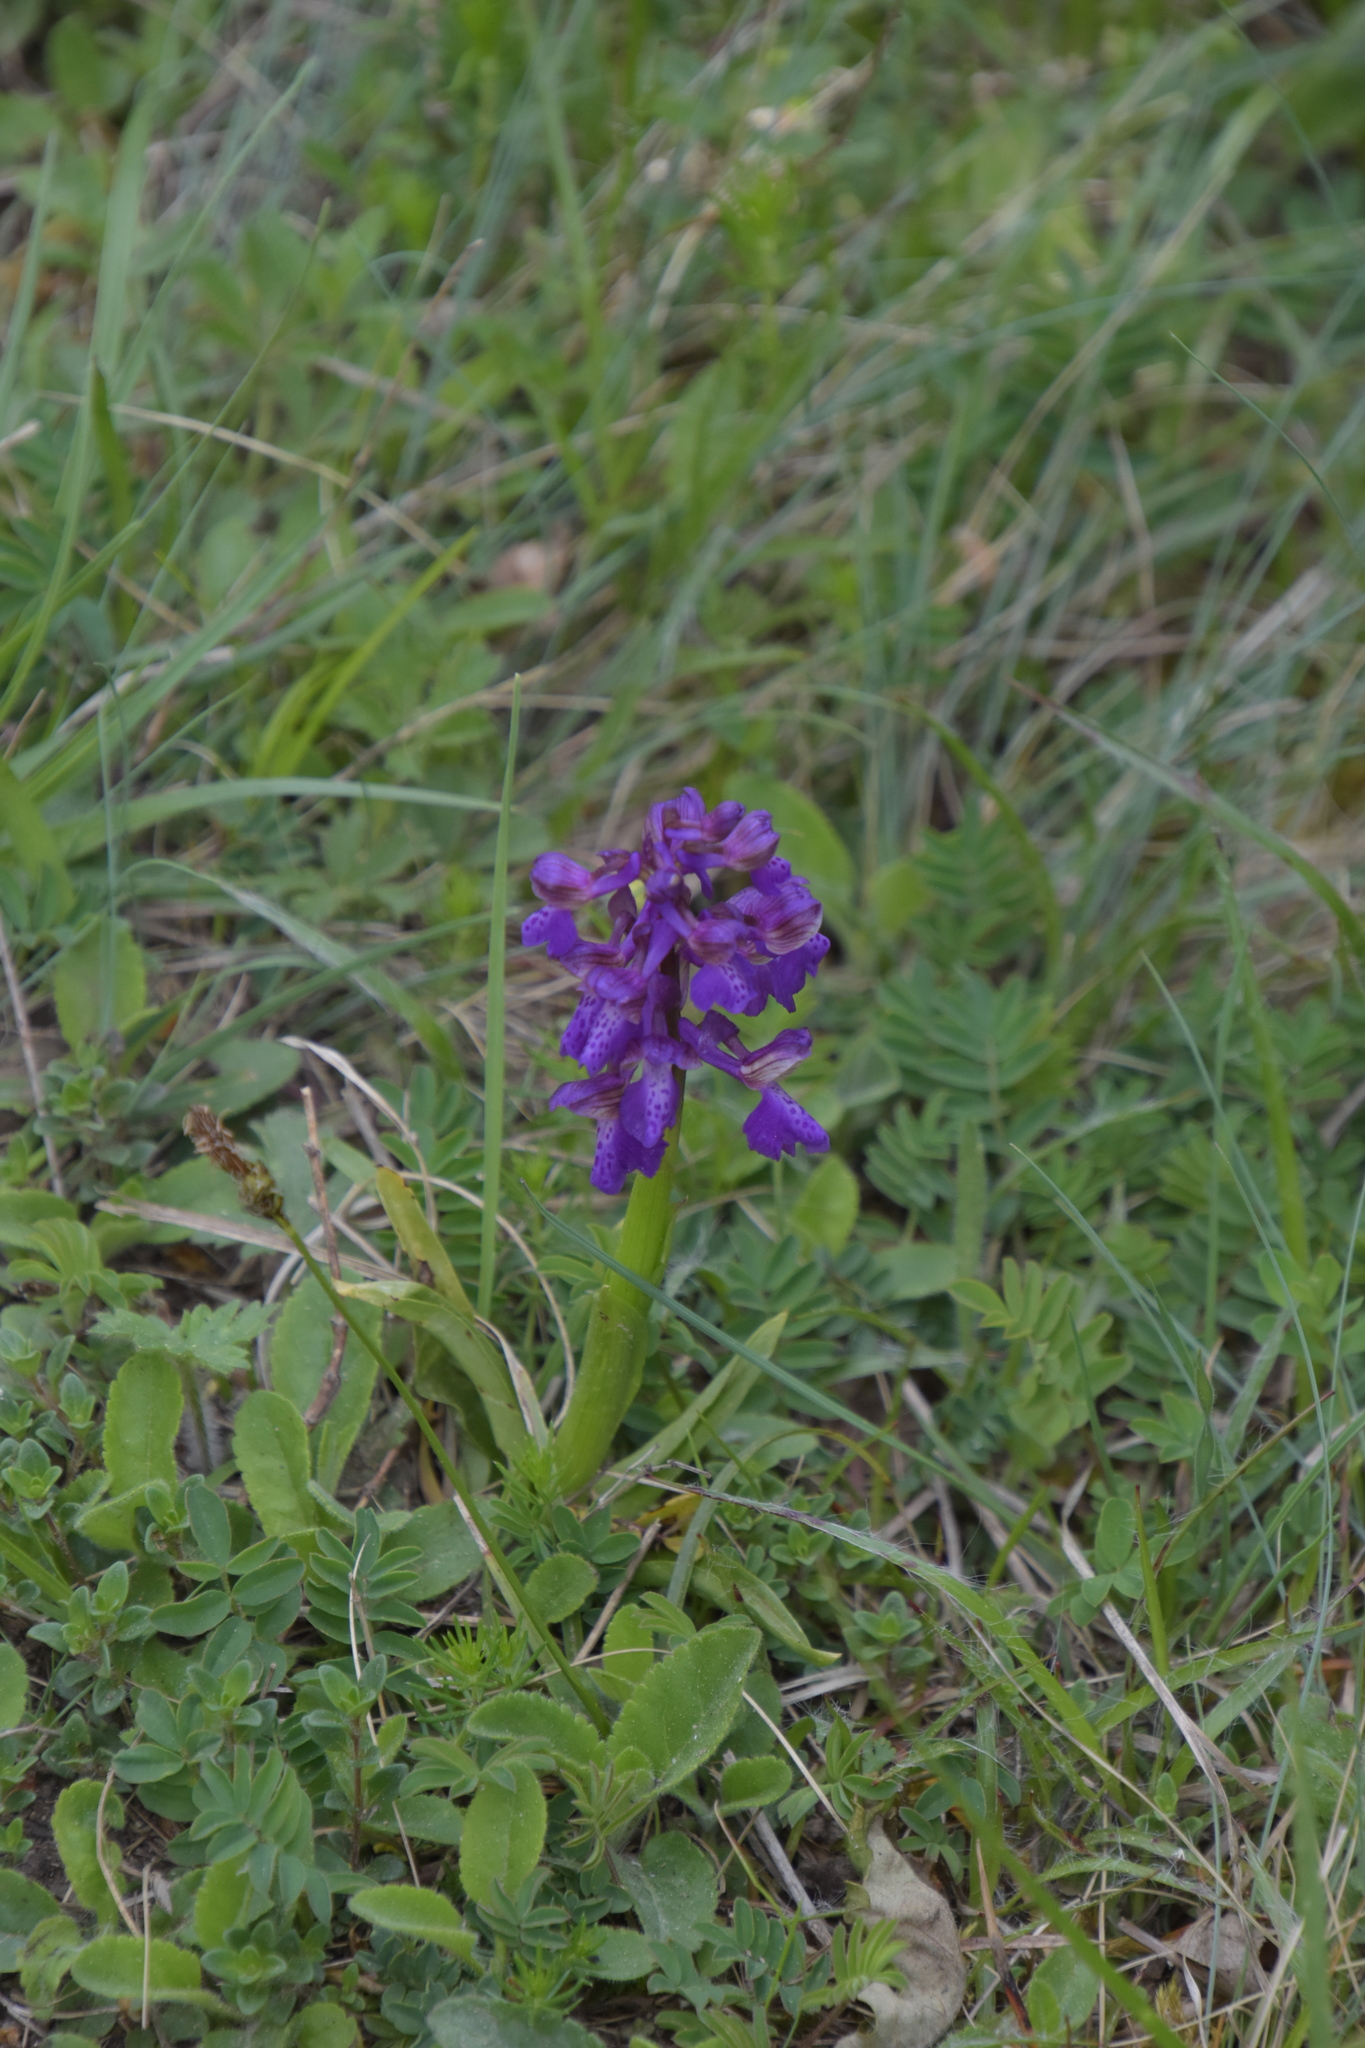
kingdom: Plantae
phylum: Tracheophyta
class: Liliopsida
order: Asparagales
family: Orchidaceae
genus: Anacamptis
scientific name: Anacamptis morio
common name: Green-winged orchid
